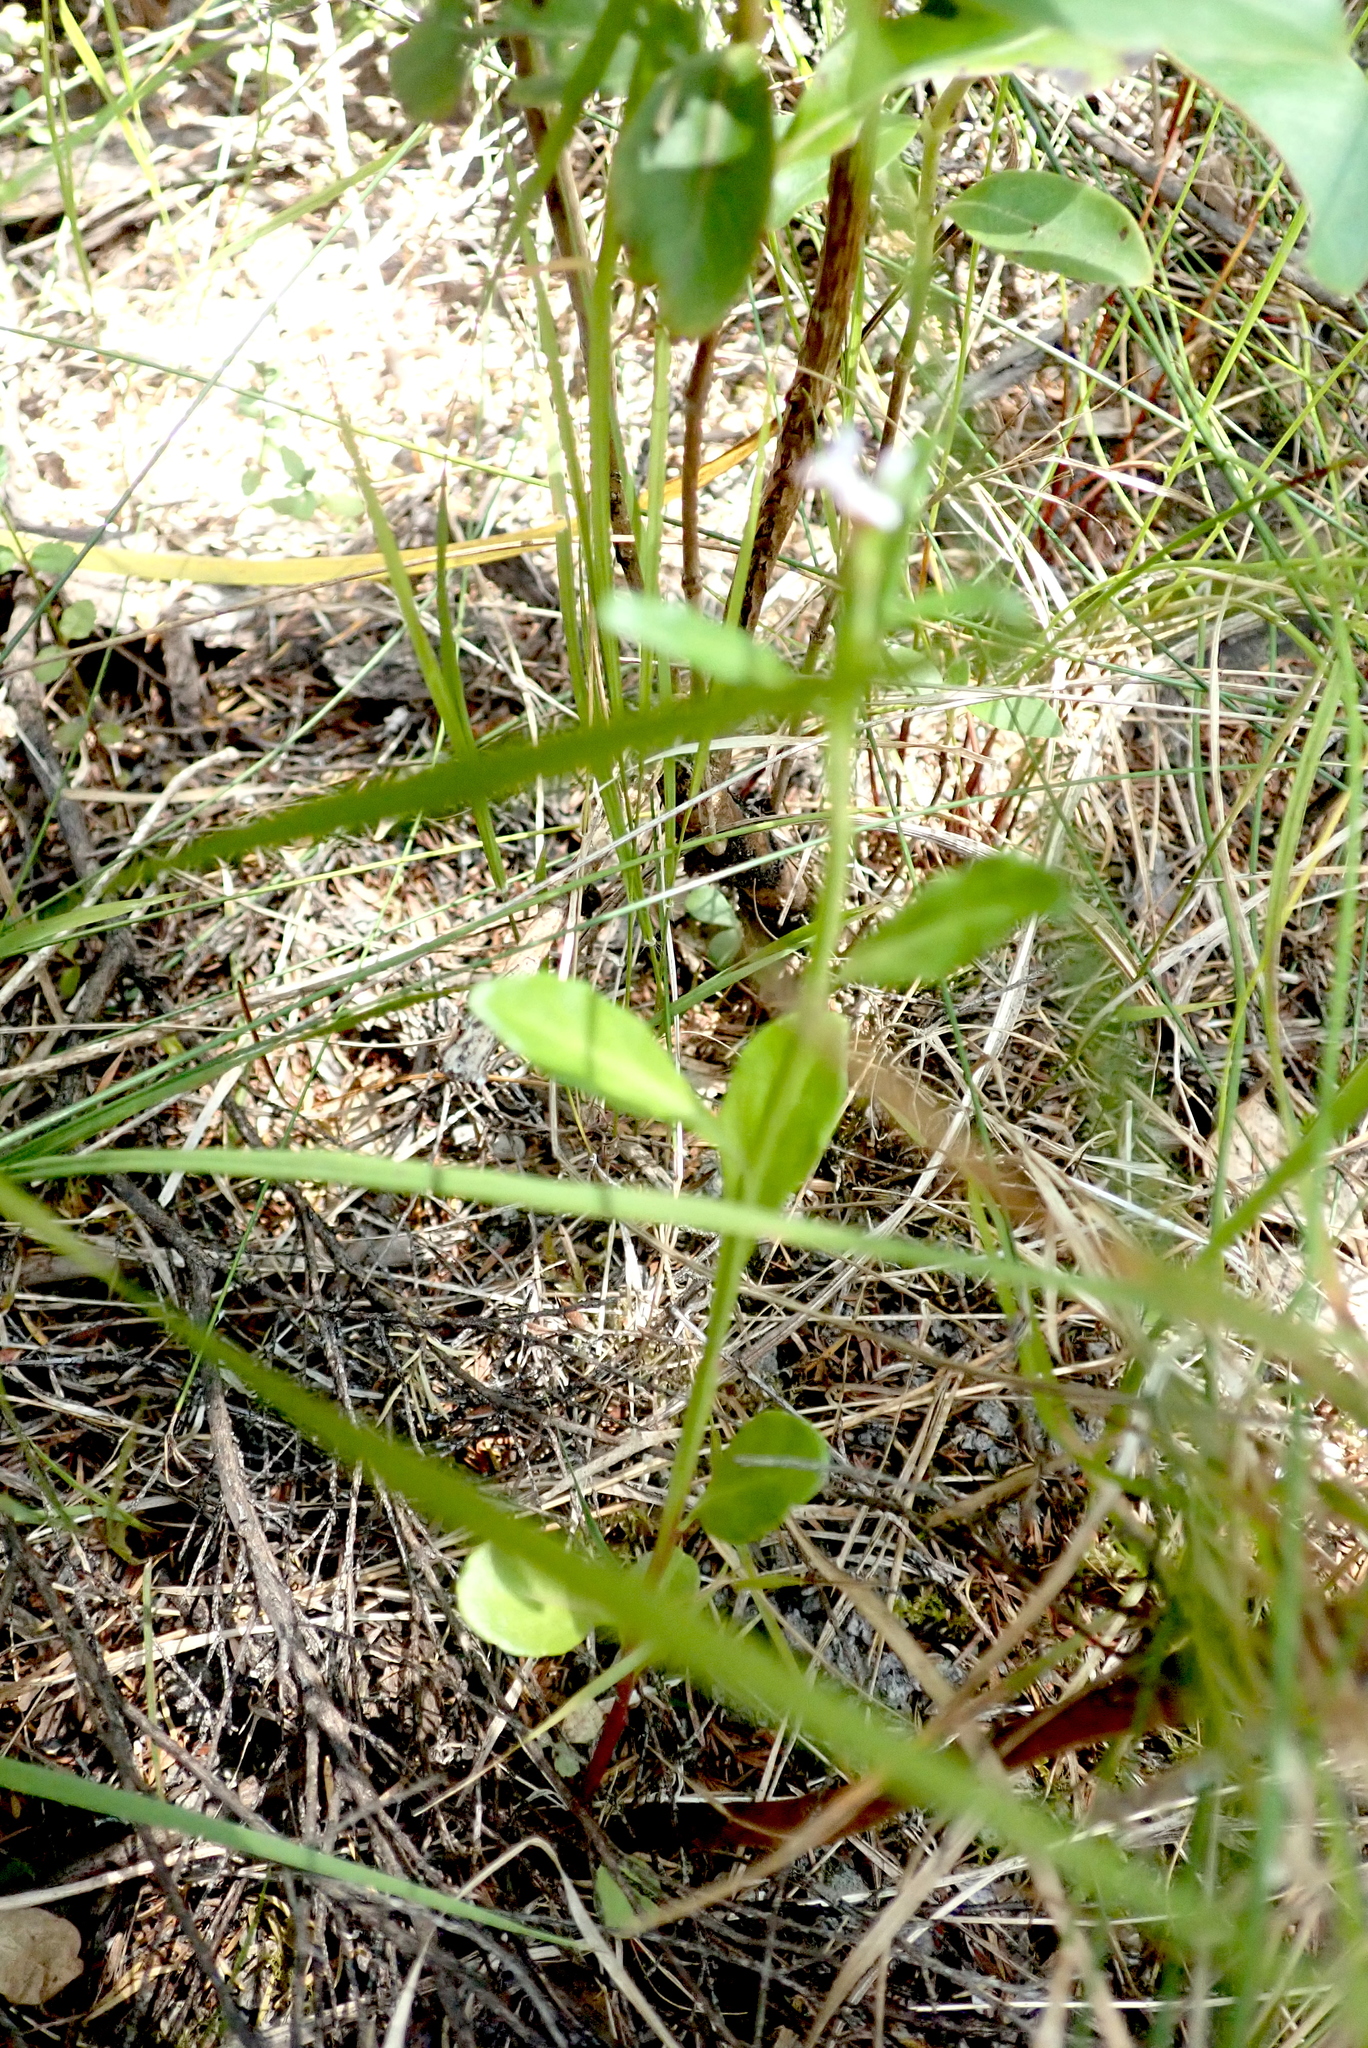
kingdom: Plantae
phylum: Tracheophyta
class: Magnoliopsida
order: Asterales
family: Campanulaceae
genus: Lobelia
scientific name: Lobelia anceps
